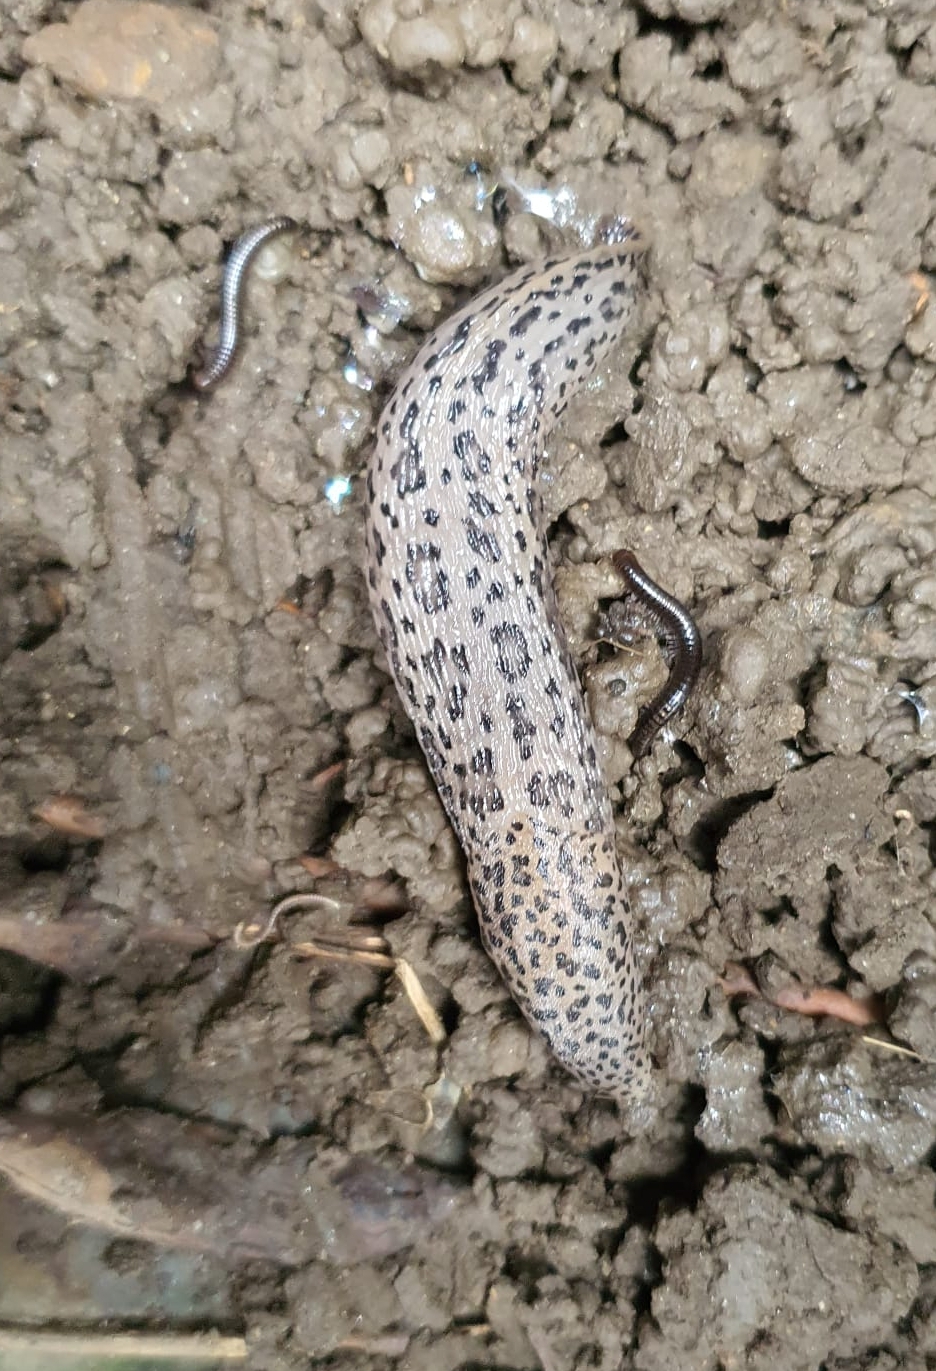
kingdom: Animalia
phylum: Mollusca
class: Gastropoda
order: Stylommatophora
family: Limacidae
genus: Limax
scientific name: Limax maximus
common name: Great grey slug
